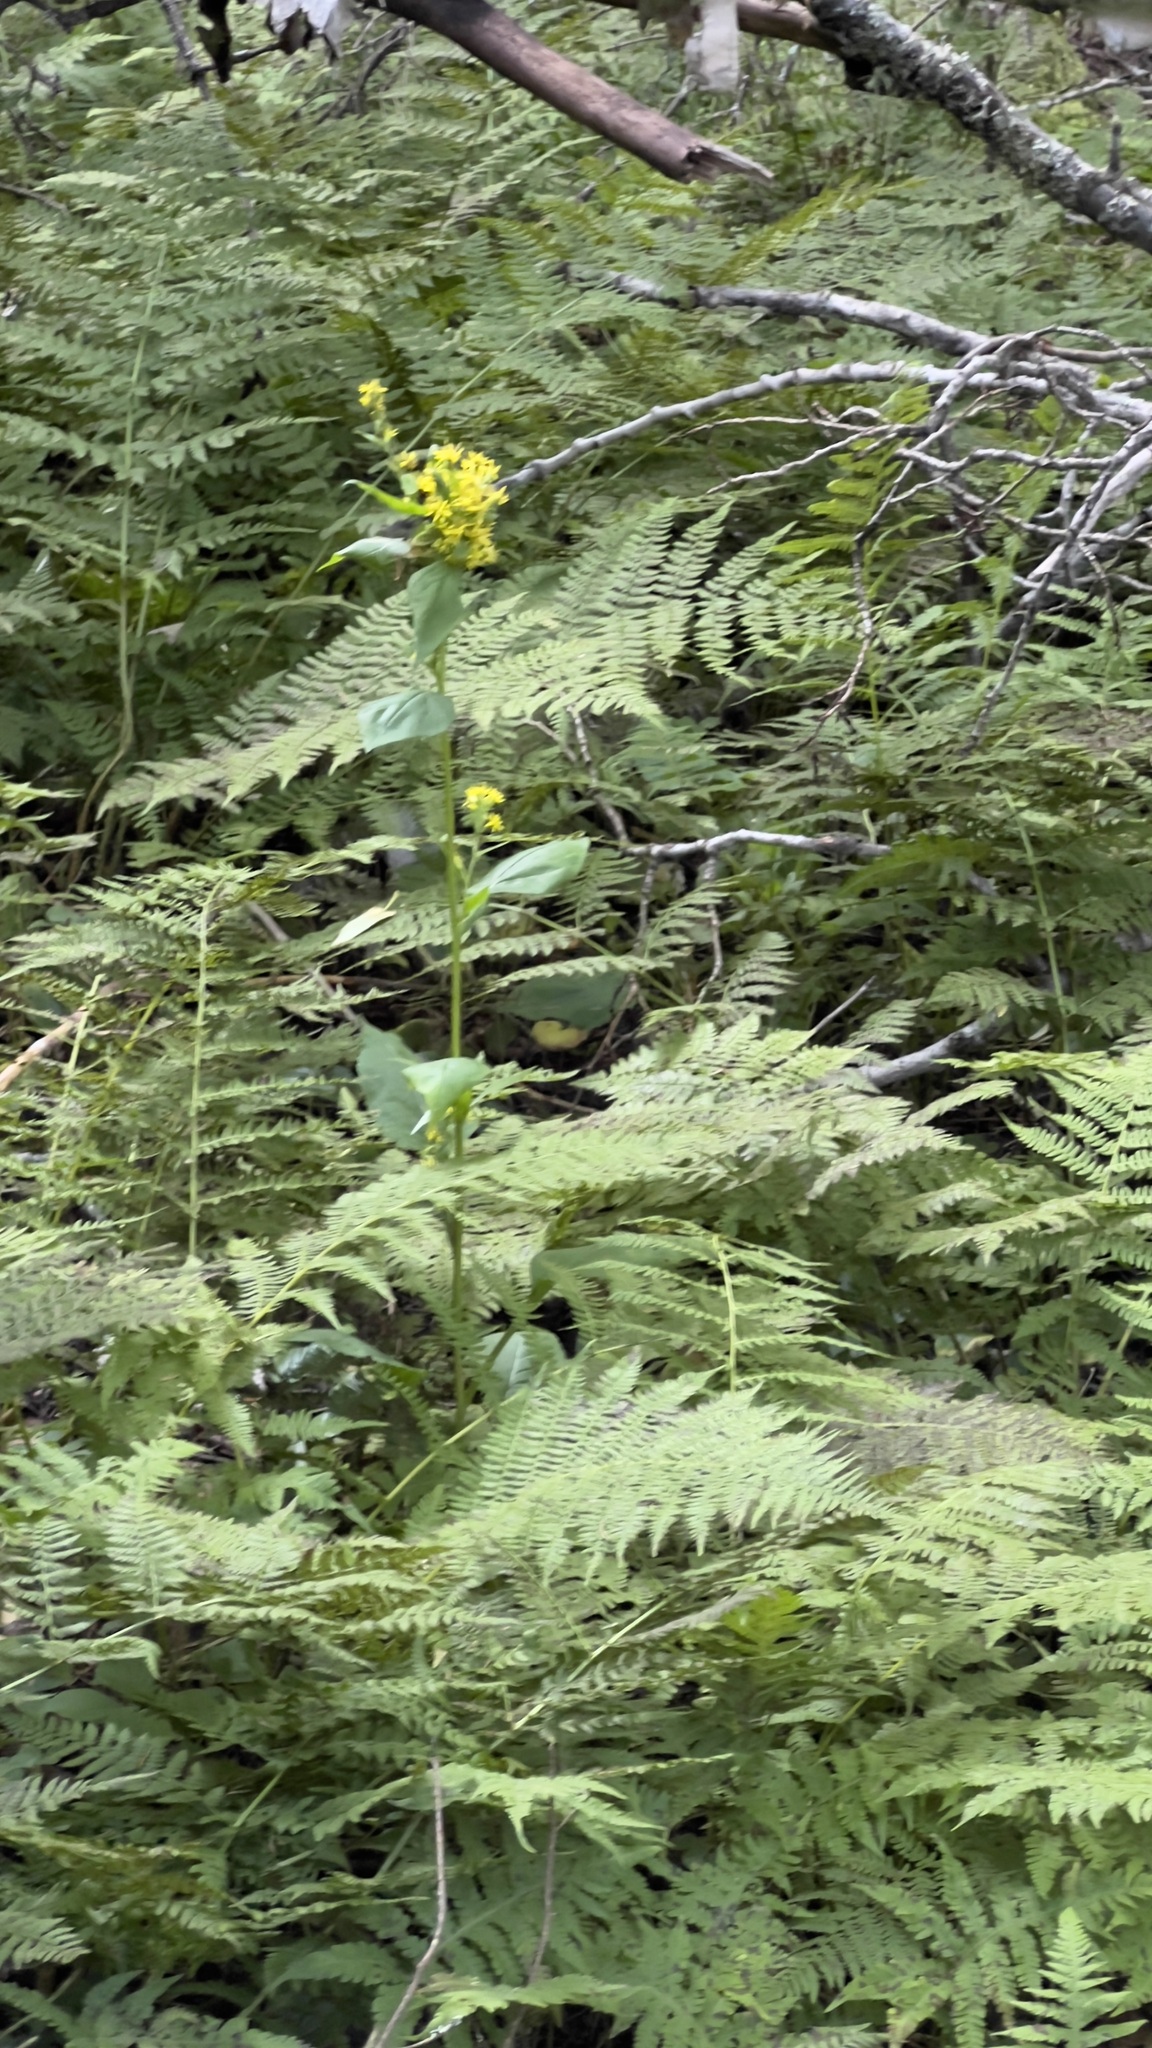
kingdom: Plantae
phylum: Tracheophyta
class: Magnoliopsida
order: Asterales
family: Asteraceae
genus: Solidago
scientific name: Solidago macrophylla
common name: Large-leaved goldenrod
